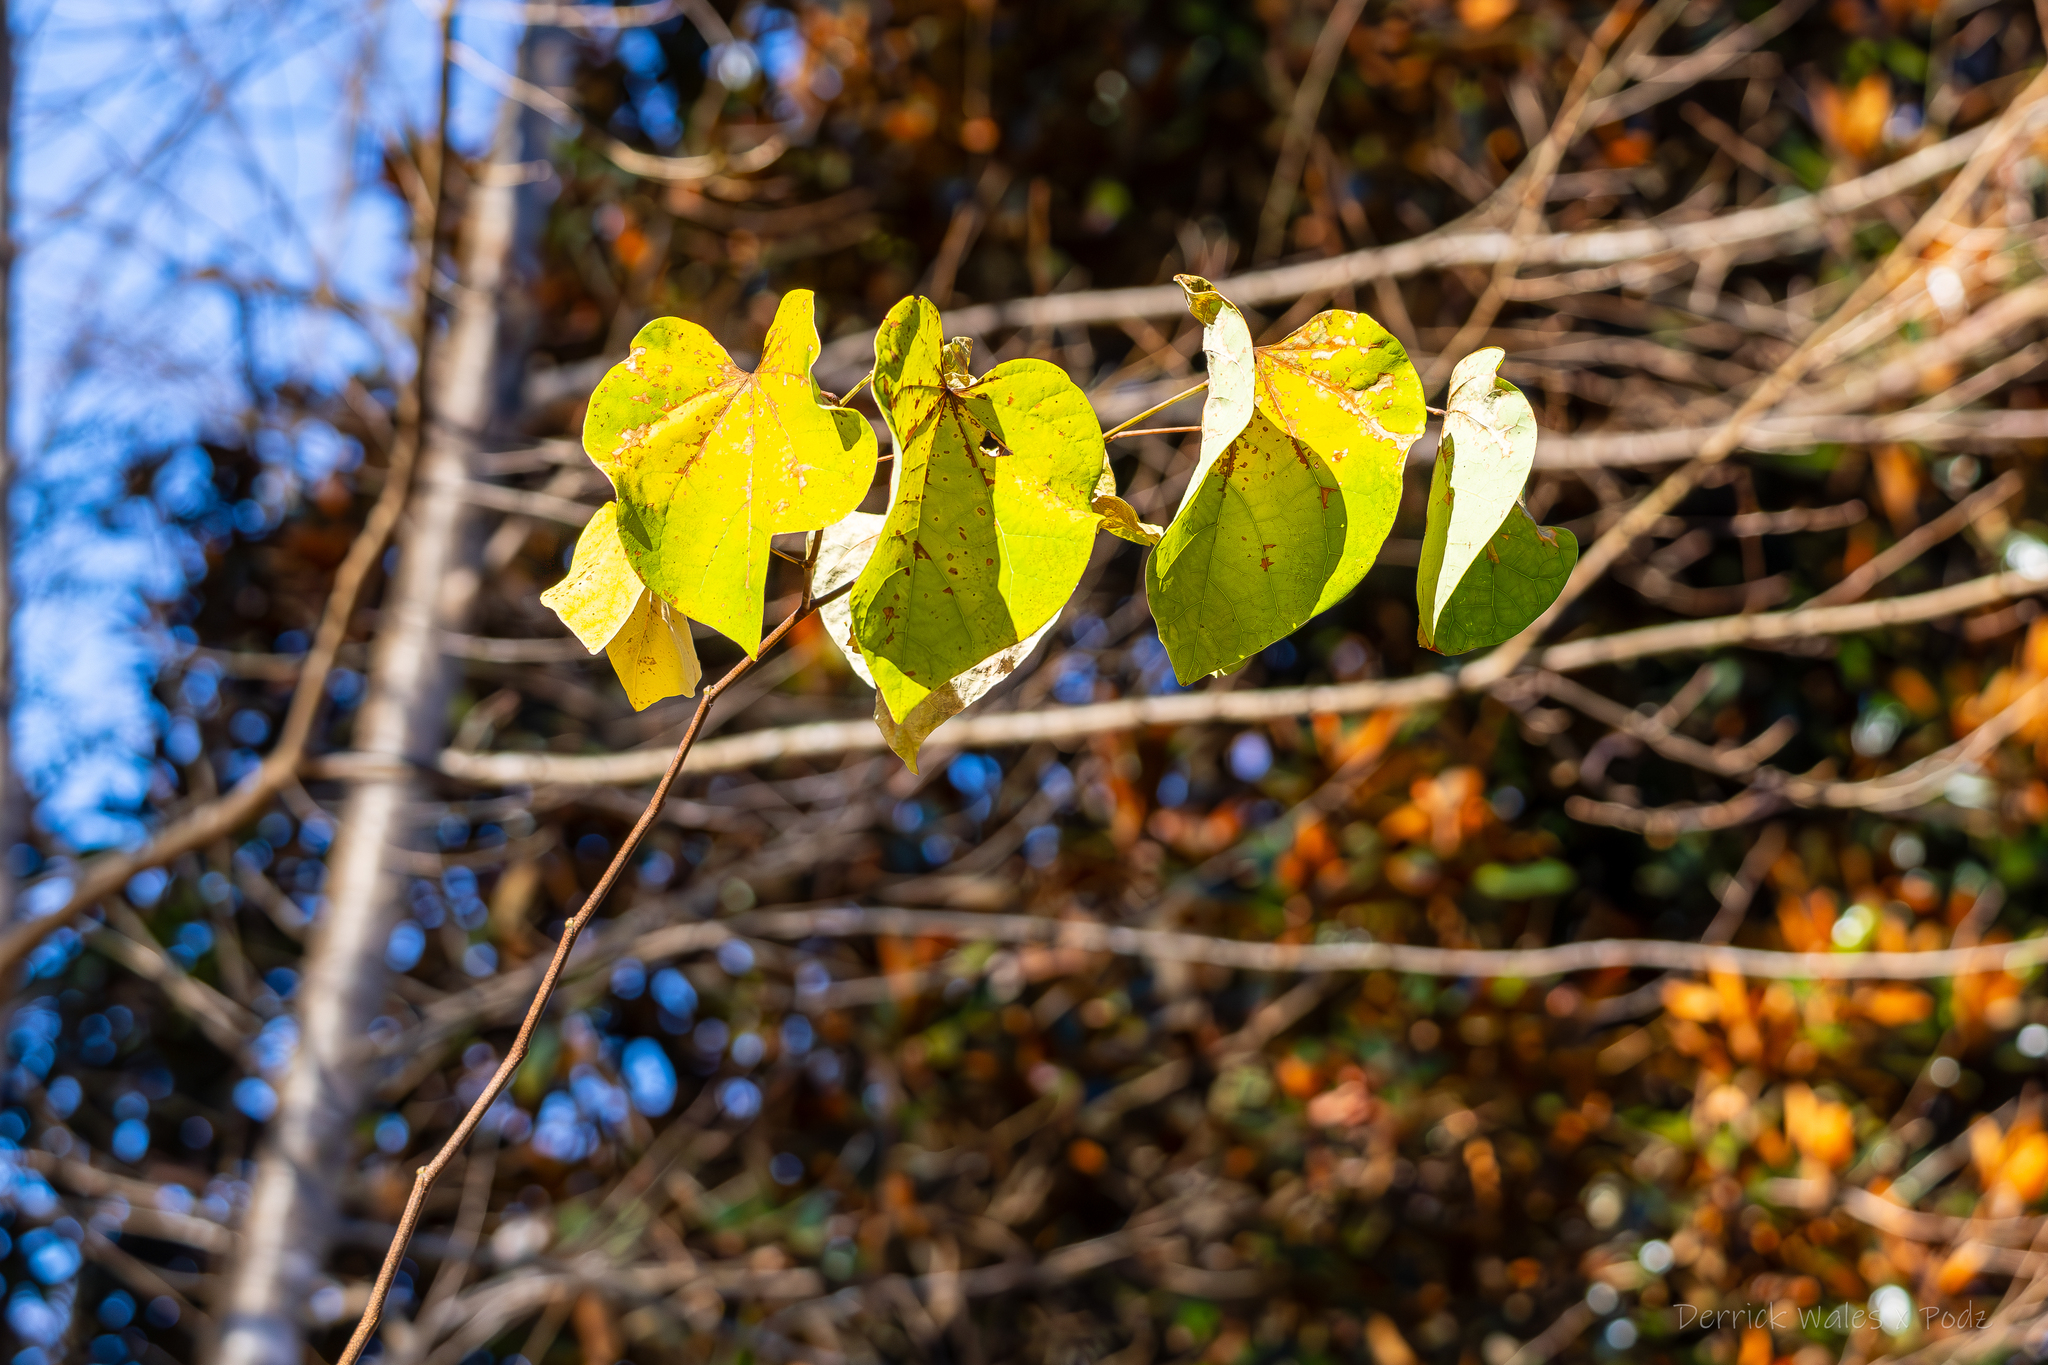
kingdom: Plantae
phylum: Tracheophyta
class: Magnoliopsida
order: Fabales
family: Fabaceae
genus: Cercis
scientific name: Cercis canadensis
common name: Eastern redbud
